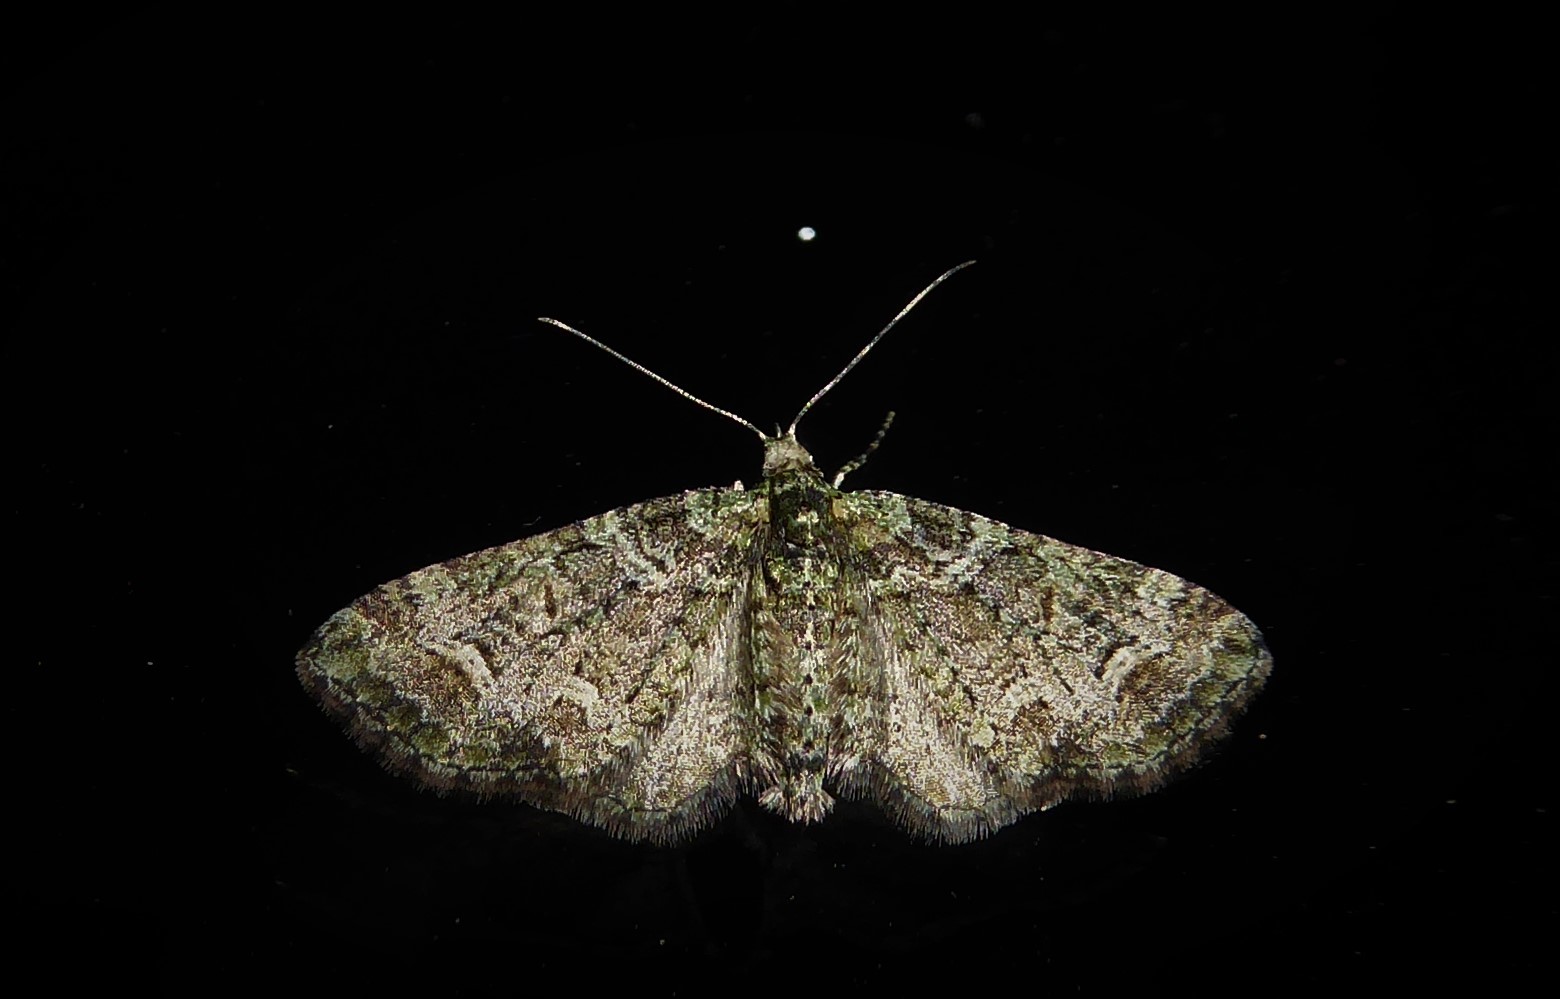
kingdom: Animalia
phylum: Arthropoda
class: Insecta
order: Lepidoptera
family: Geometridae
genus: Idaea
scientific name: Idaea mutanda
